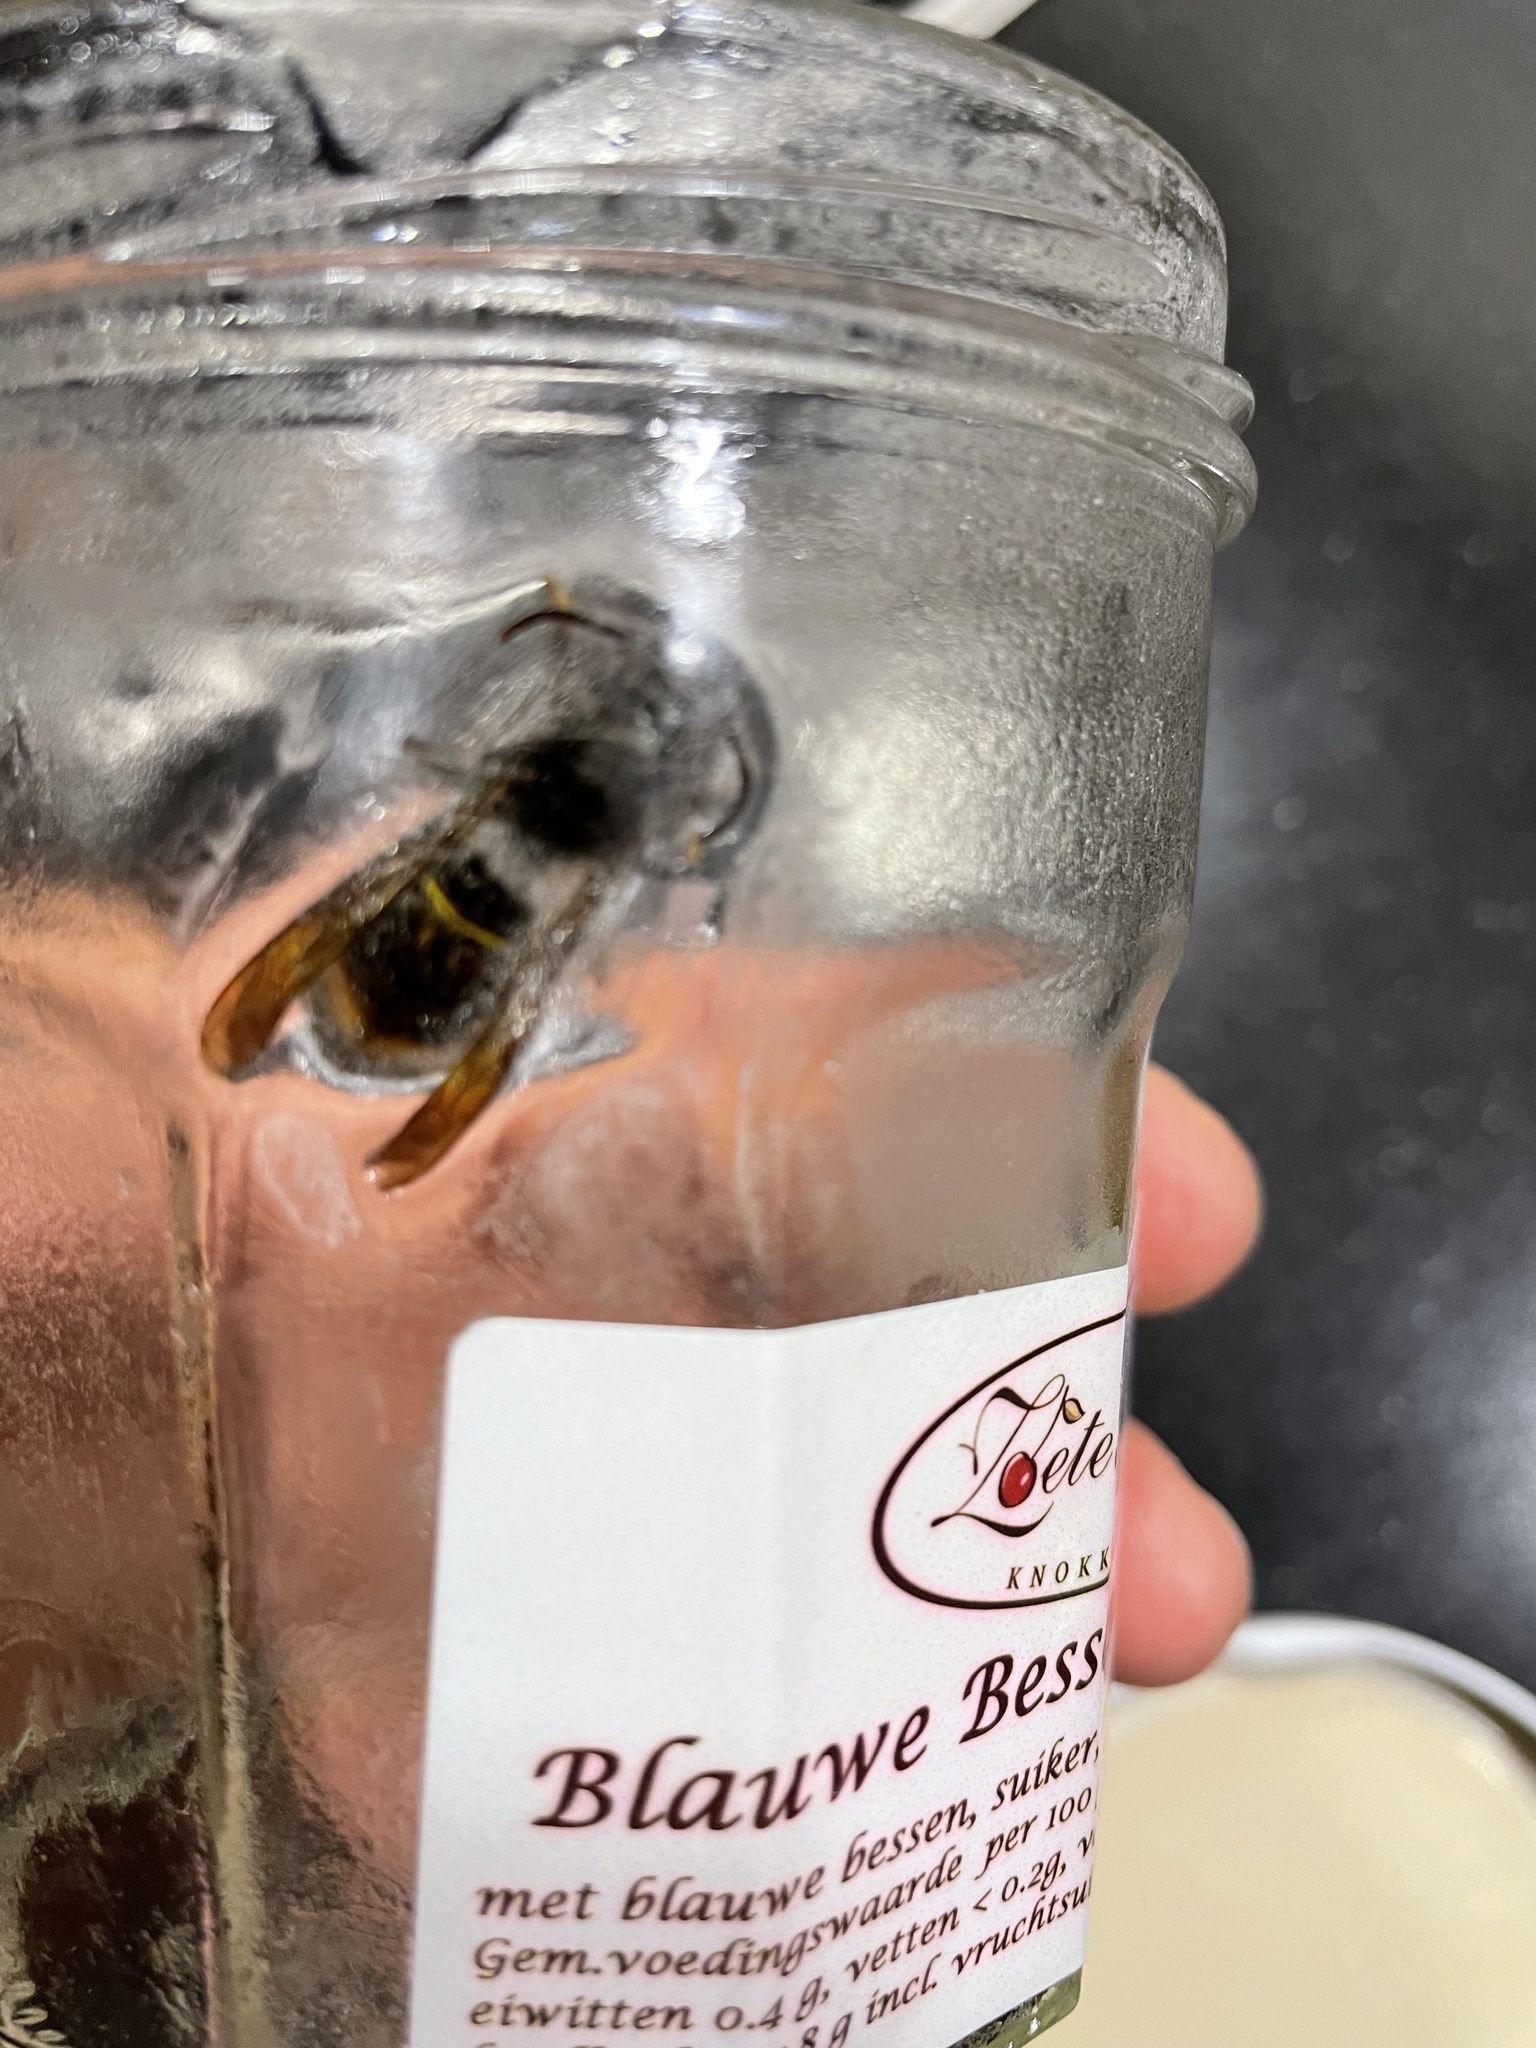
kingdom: Animalia
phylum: Arthropoda
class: Insecta
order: Hymenoptera
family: Vespidae
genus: Vespa
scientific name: Vespa velutina
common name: Asian hornet
